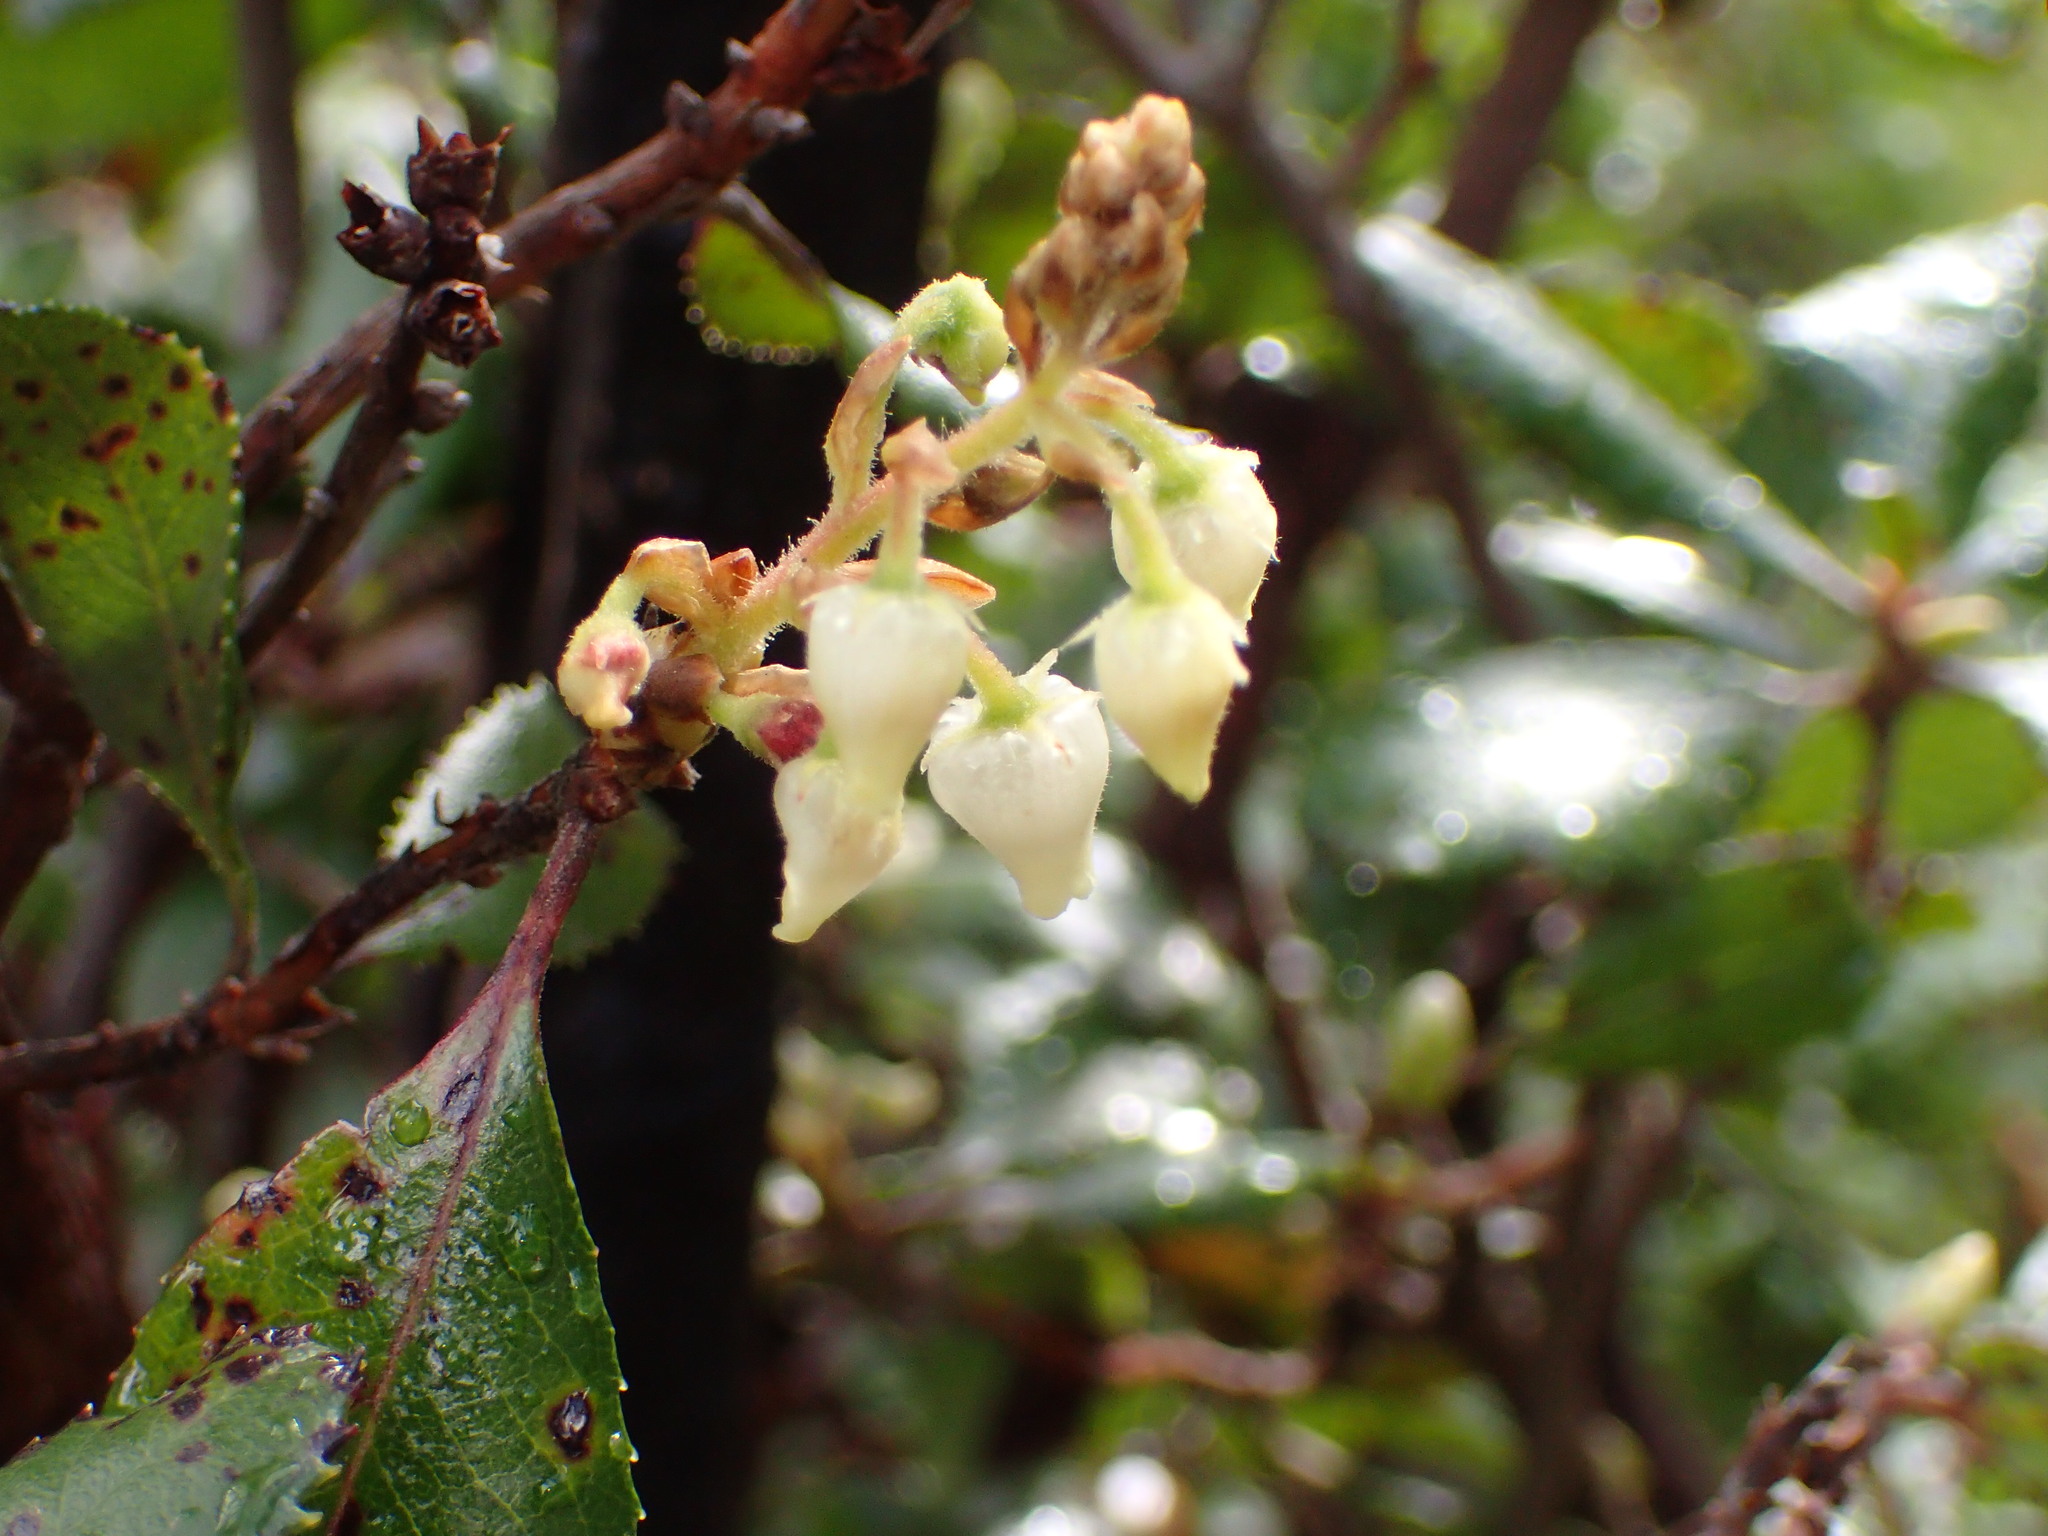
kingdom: Plantae
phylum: Tracheophyta
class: Magnoliopsida
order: Ericales
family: Ericaceae
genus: Comarostaphylis
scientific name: Comarostaphylis diversifolia
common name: Summer-holly
